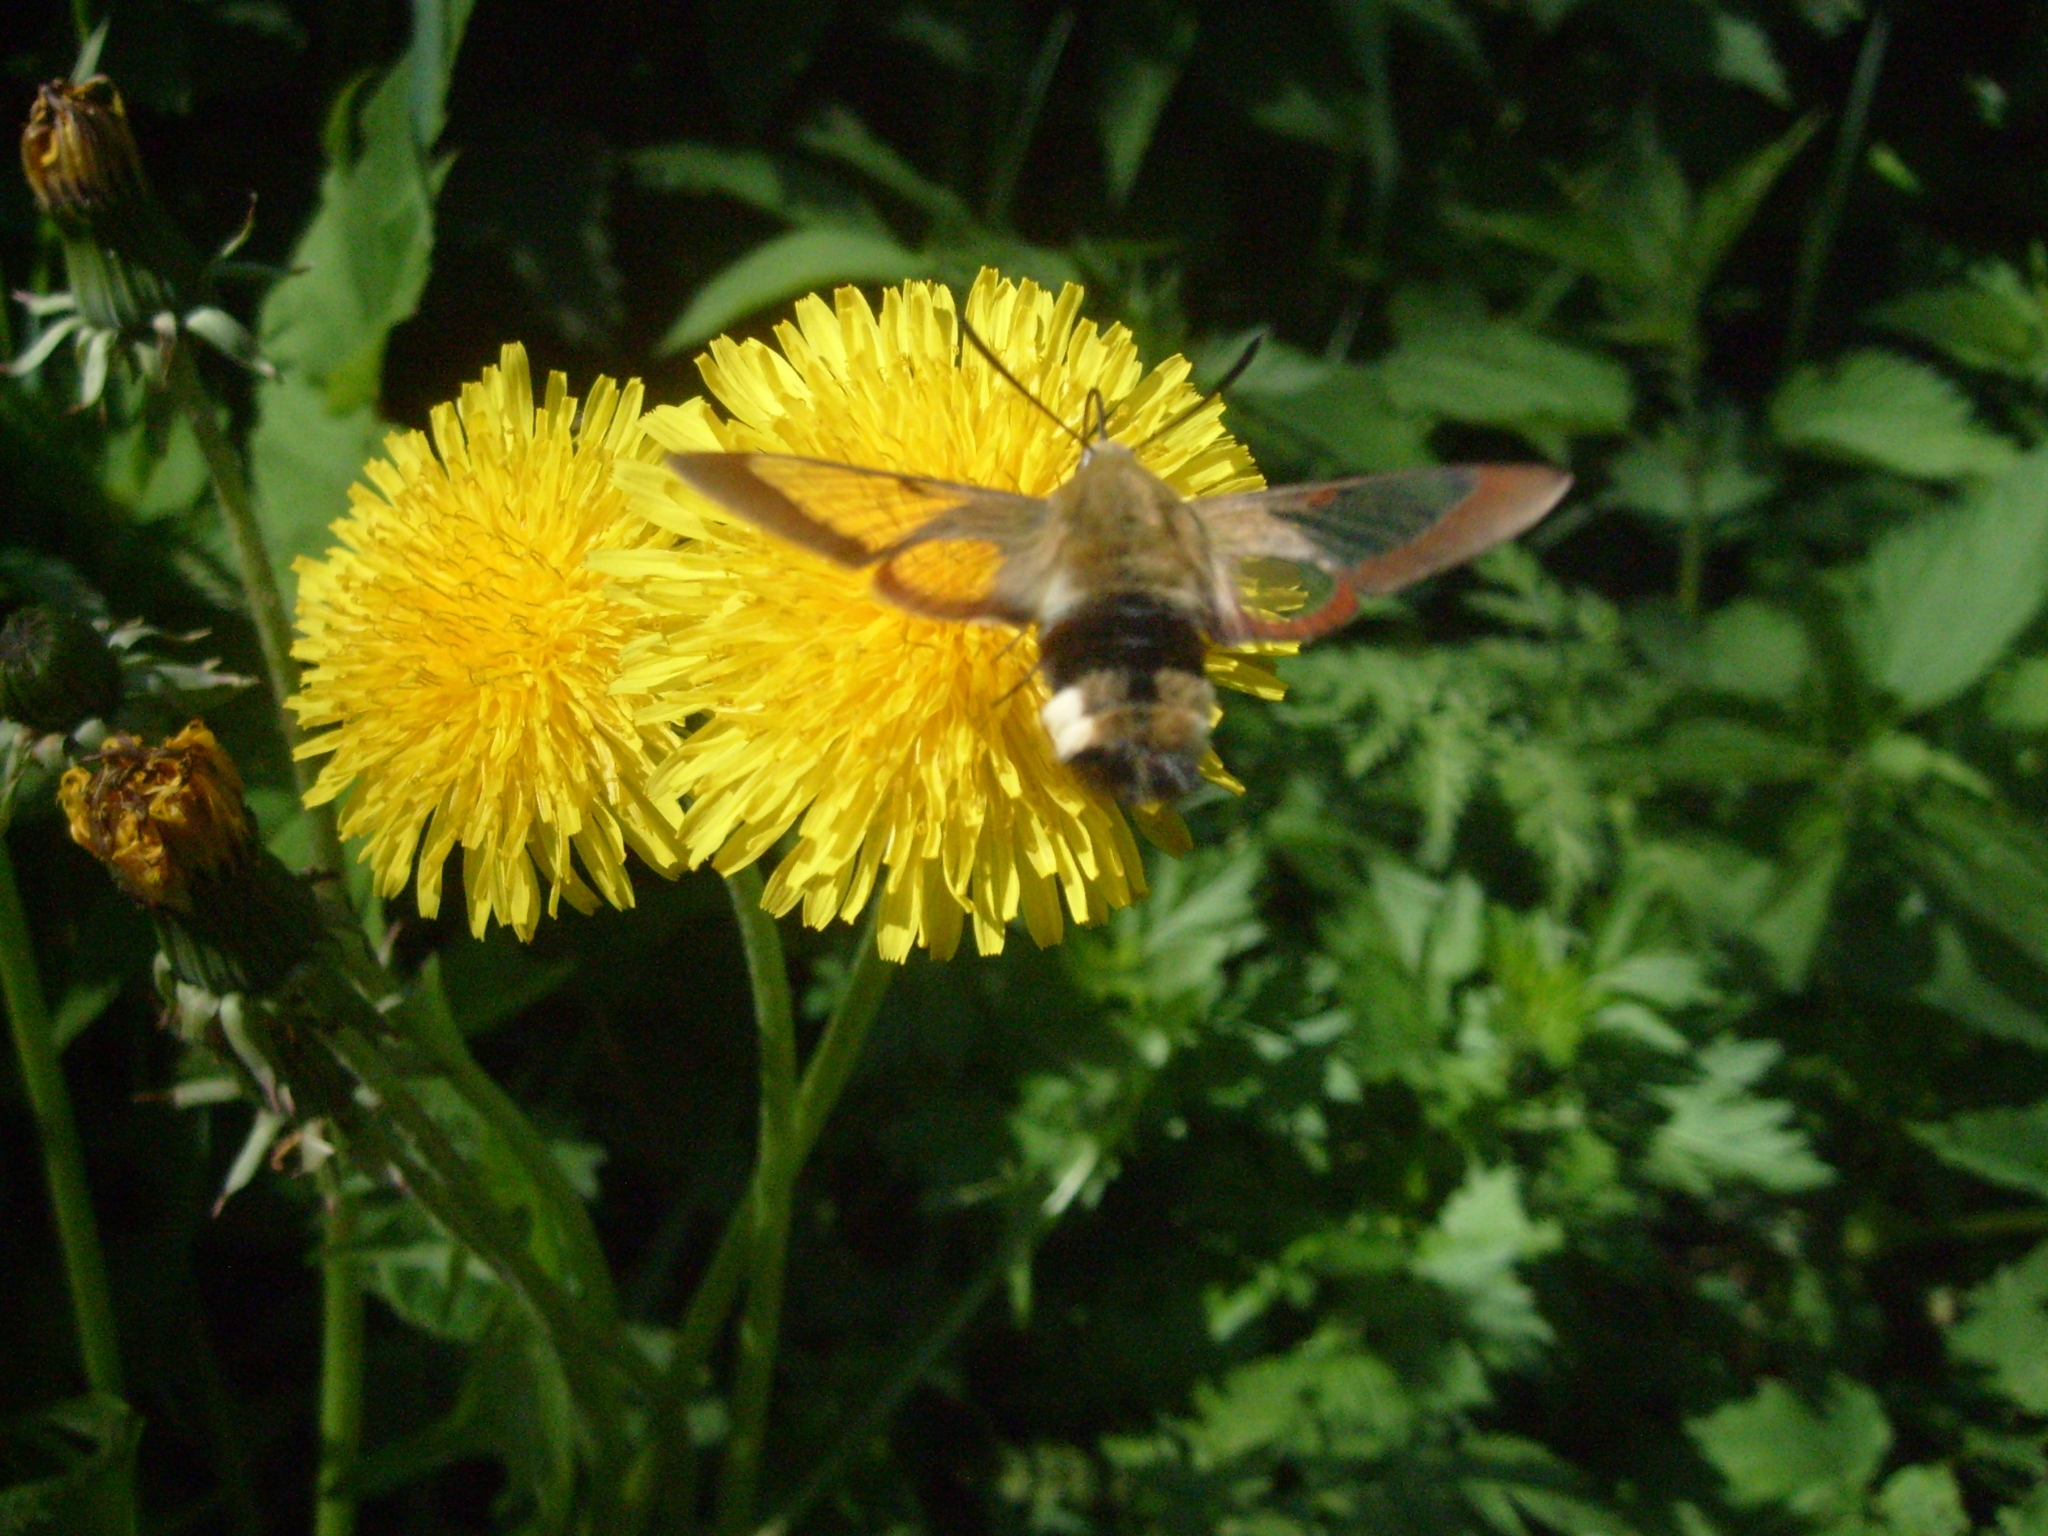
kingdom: Animalia
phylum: Arthropoda
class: Insecta
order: Lepidoptera
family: Sphingidae
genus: Hemaris
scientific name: Hemaris fuciformis
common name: Broad-bordered bee hawk-moth
